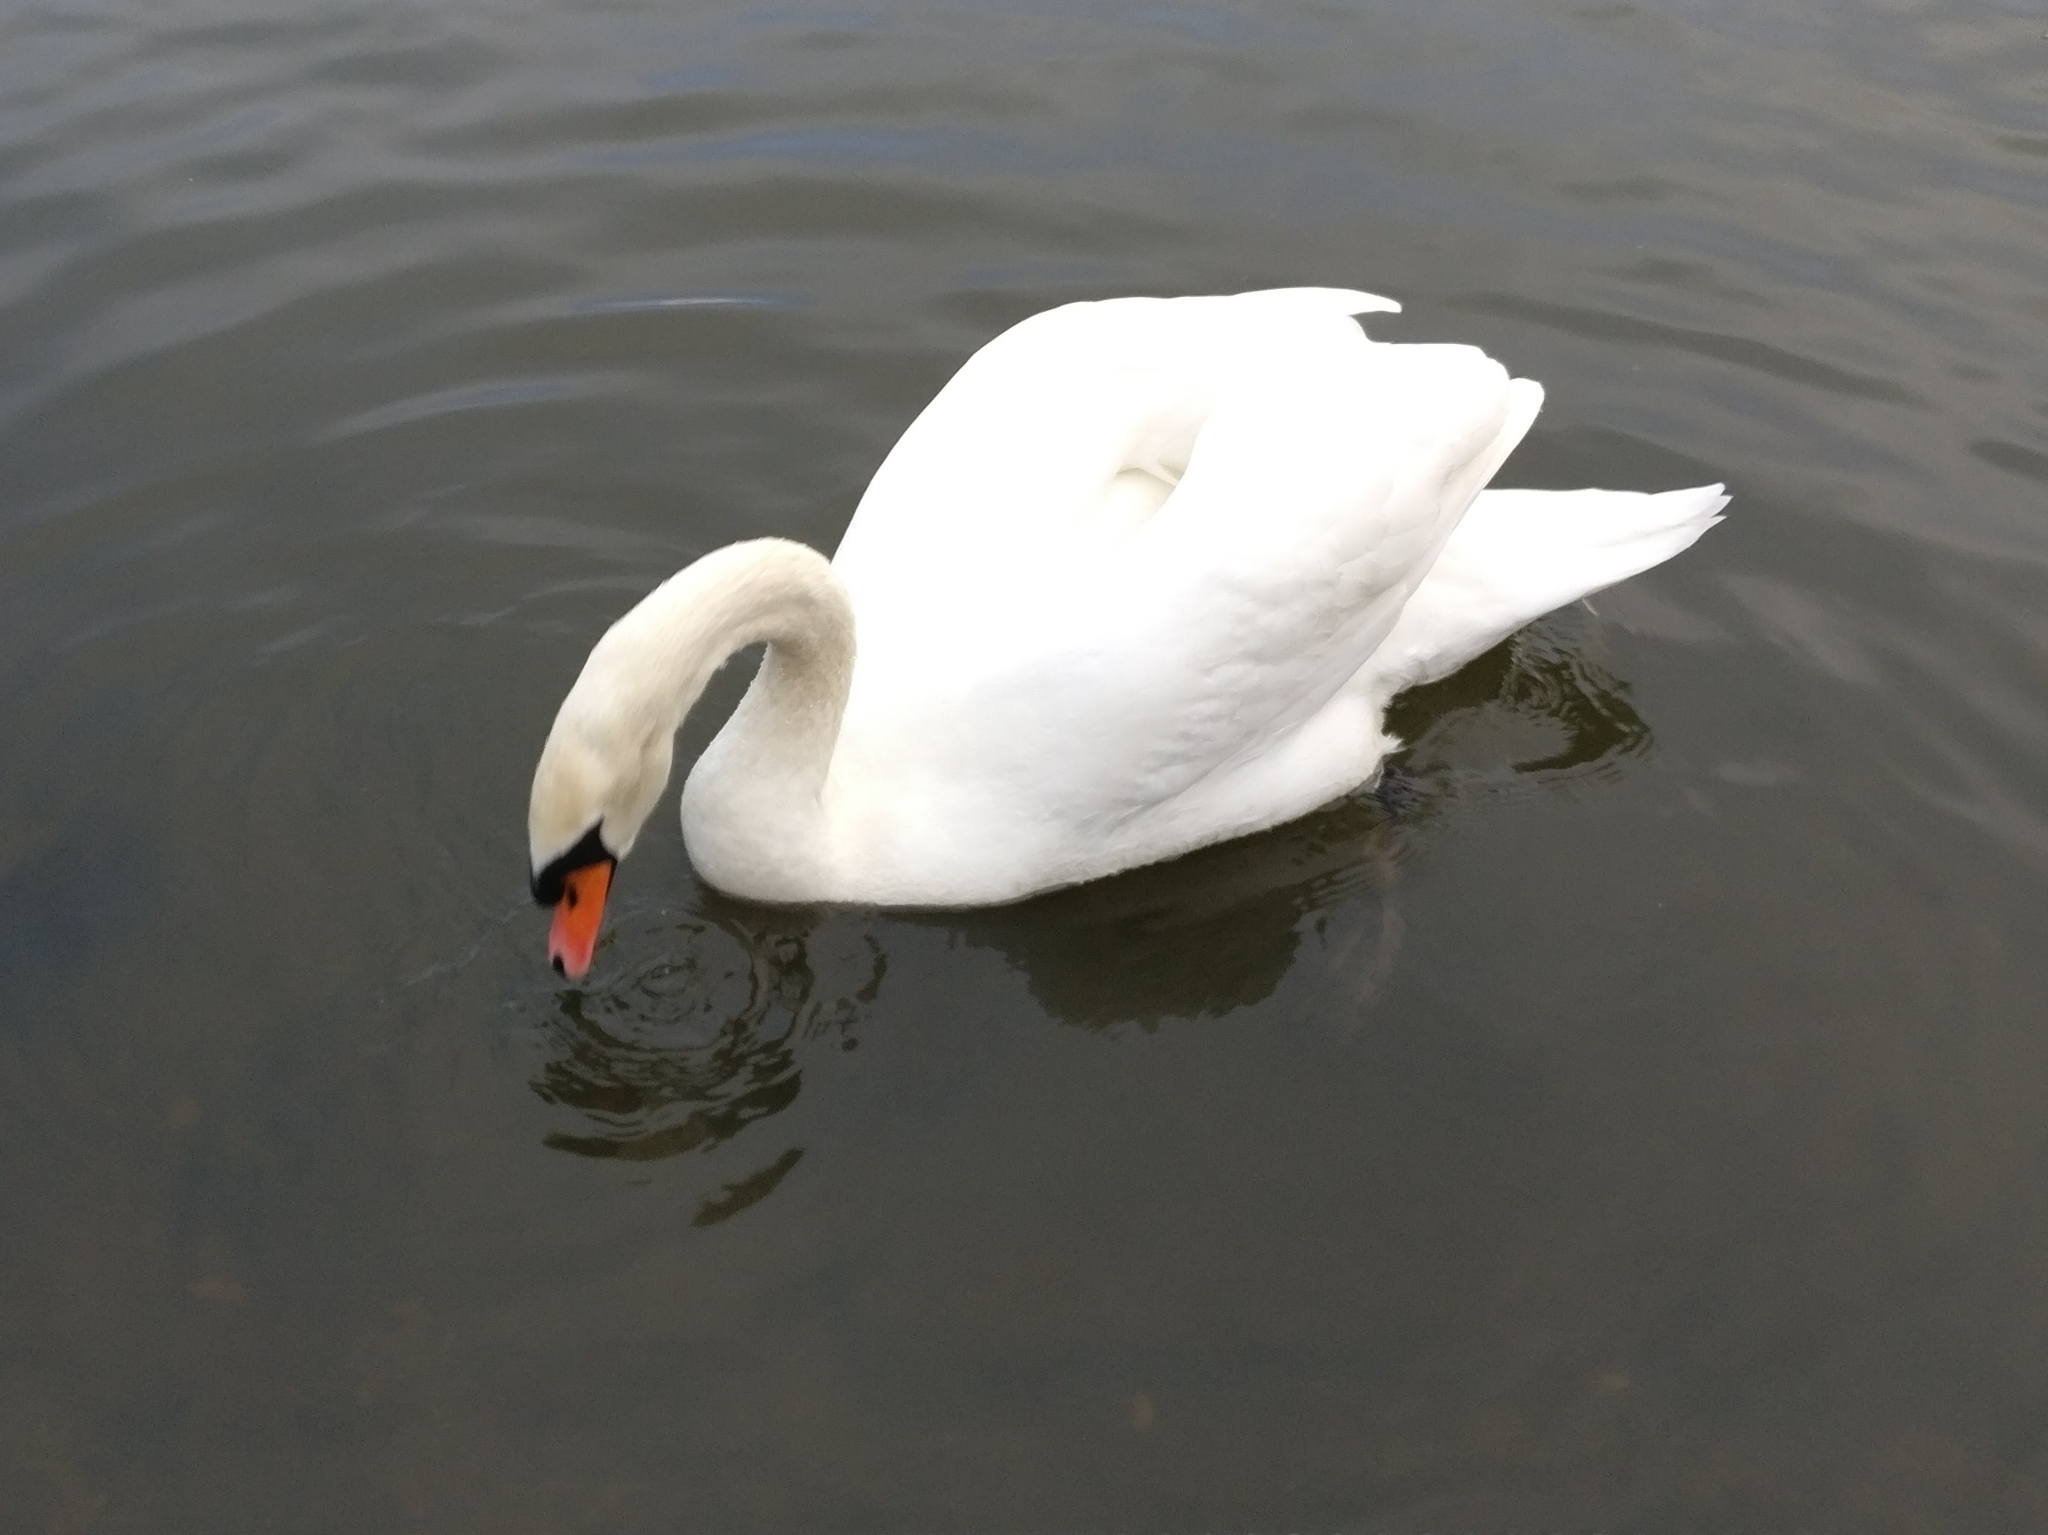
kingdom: Animalia
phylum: Chordata
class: Aves
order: Anseriformes
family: Anatidae
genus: Cygnus
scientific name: Cygnus olor
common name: Mute swan
